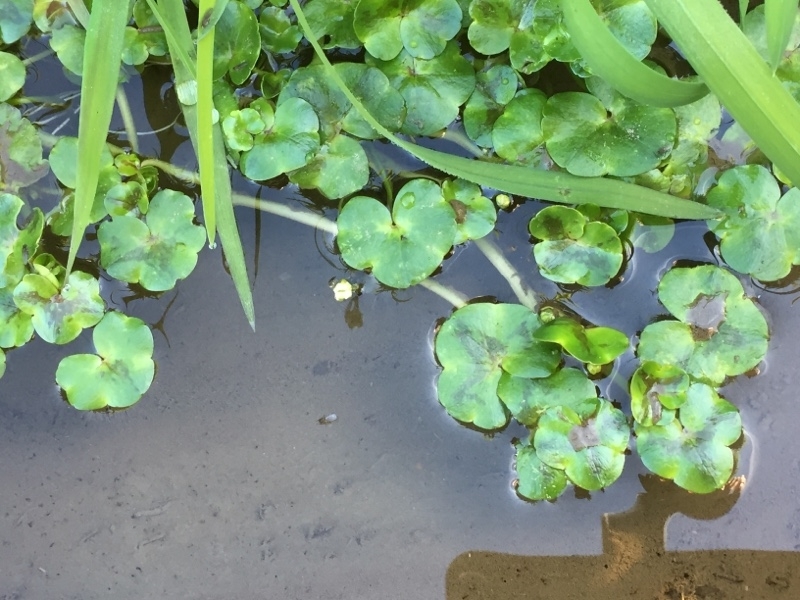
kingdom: Plantae
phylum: Tracheophyta
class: Magnoliopsida
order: Ranunculales
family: Ranunculaceae
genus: Ranunculus
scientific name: Ranunculus hederaceus
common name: Ivy-leaved crowfoot
